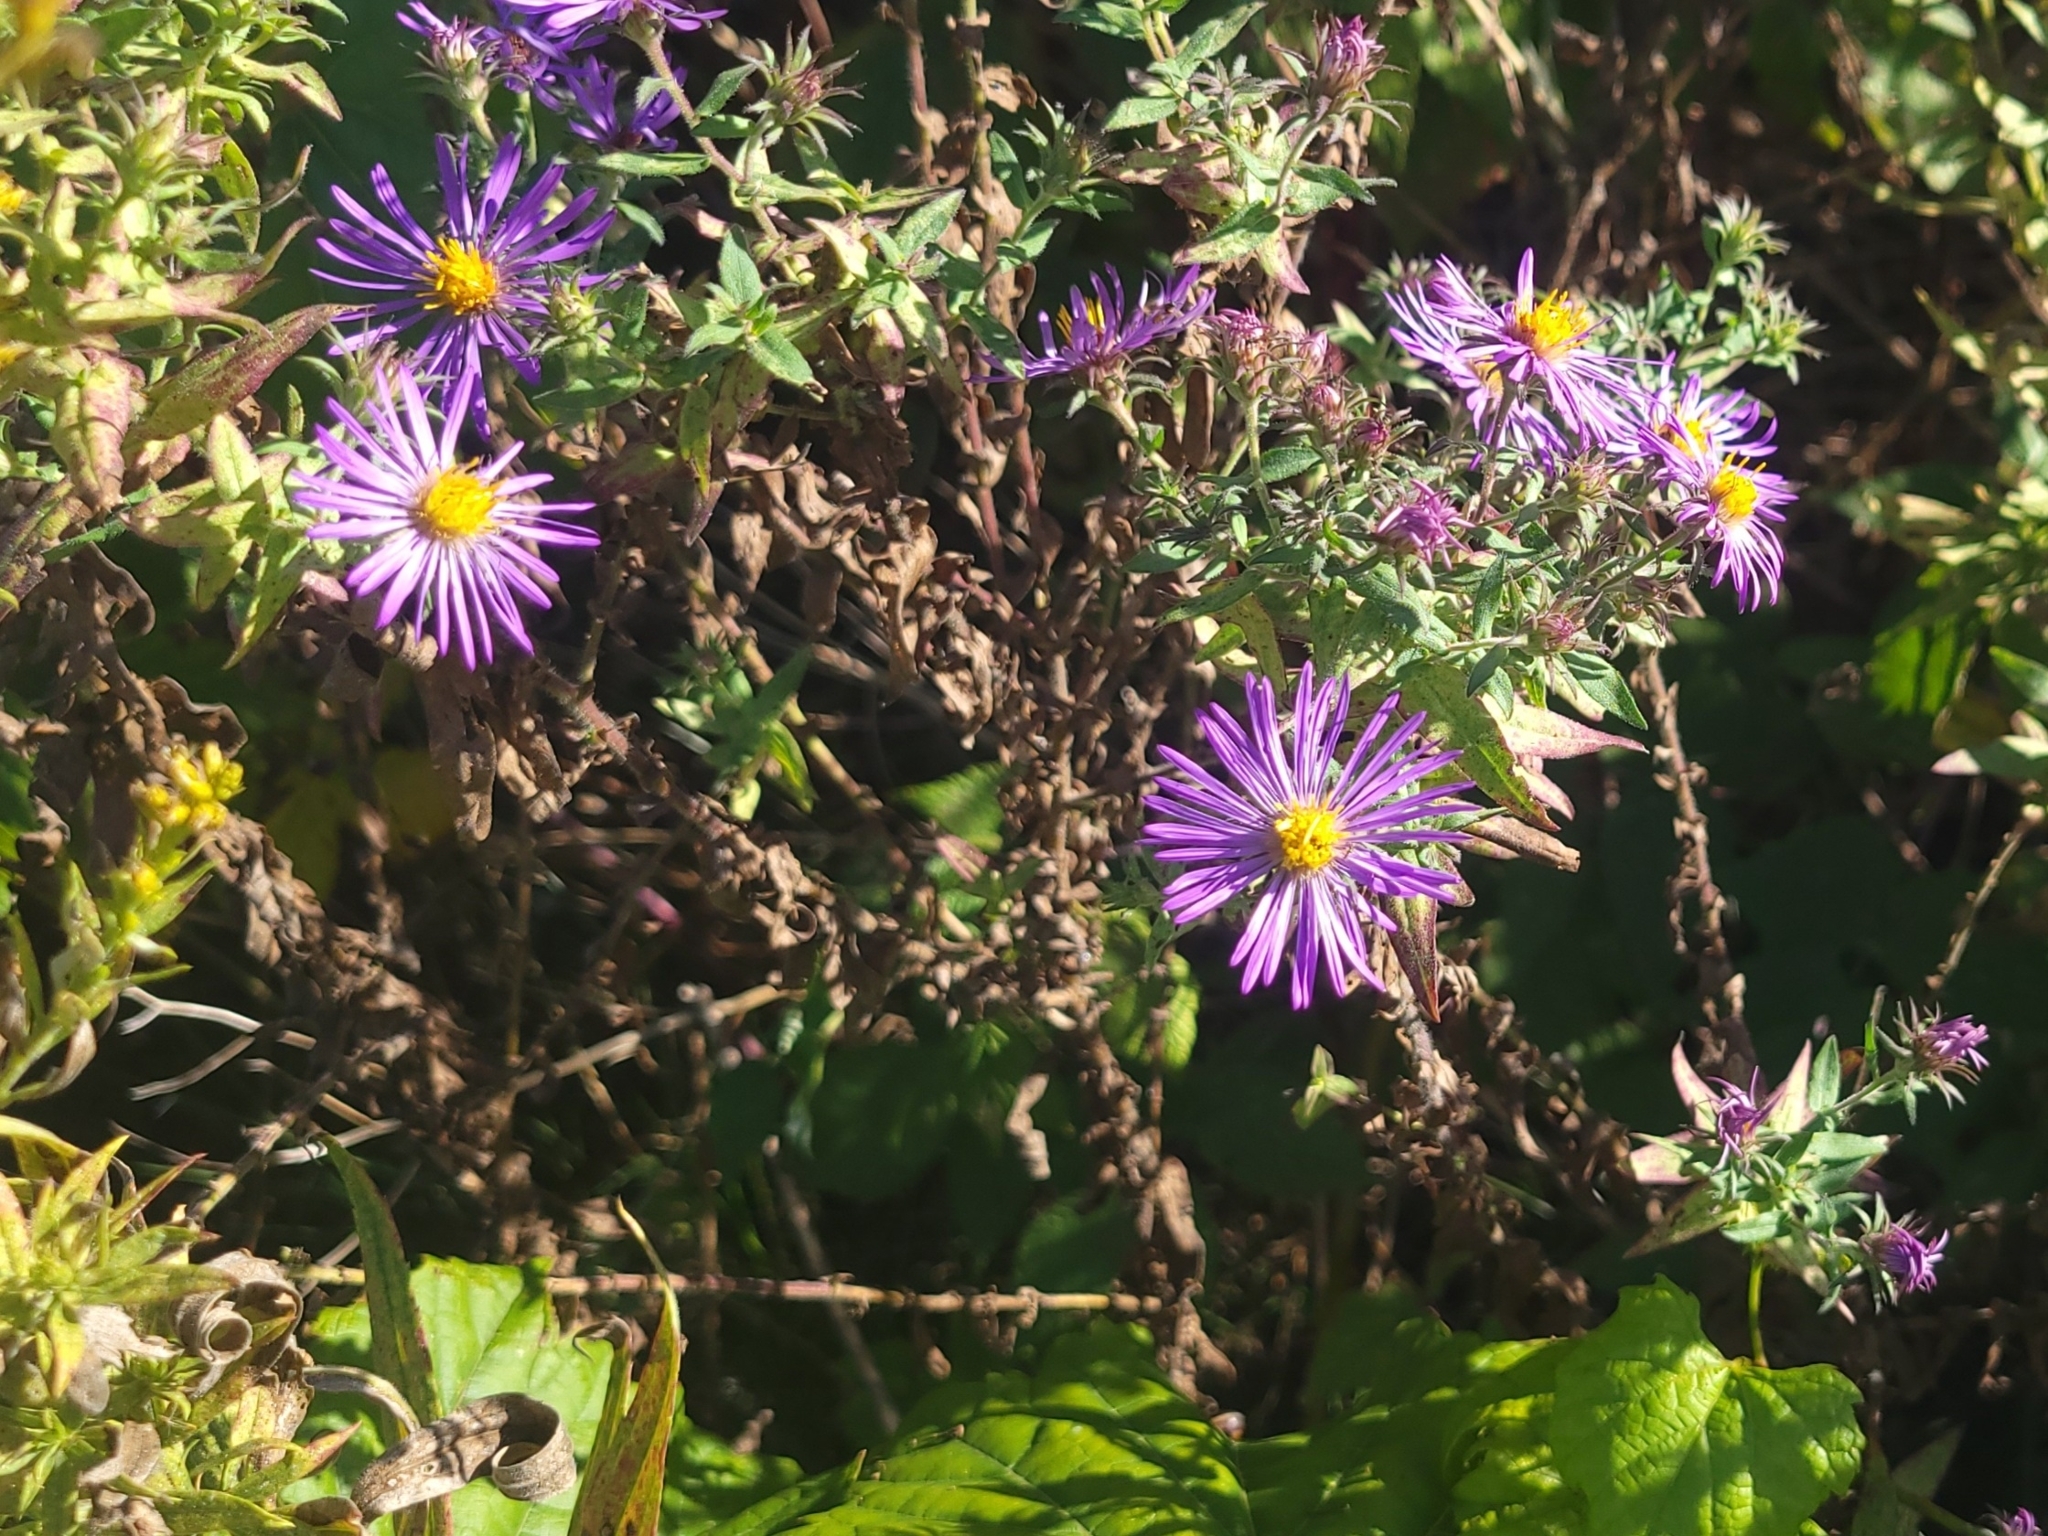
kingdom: Plantae
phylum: Tracheophyta
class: Magnoliopsida
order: Asterales
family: Asteraceae
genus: Symphyotrichum
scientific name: Symphyotrichum novae-angliae
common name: Michaelmas daisy
